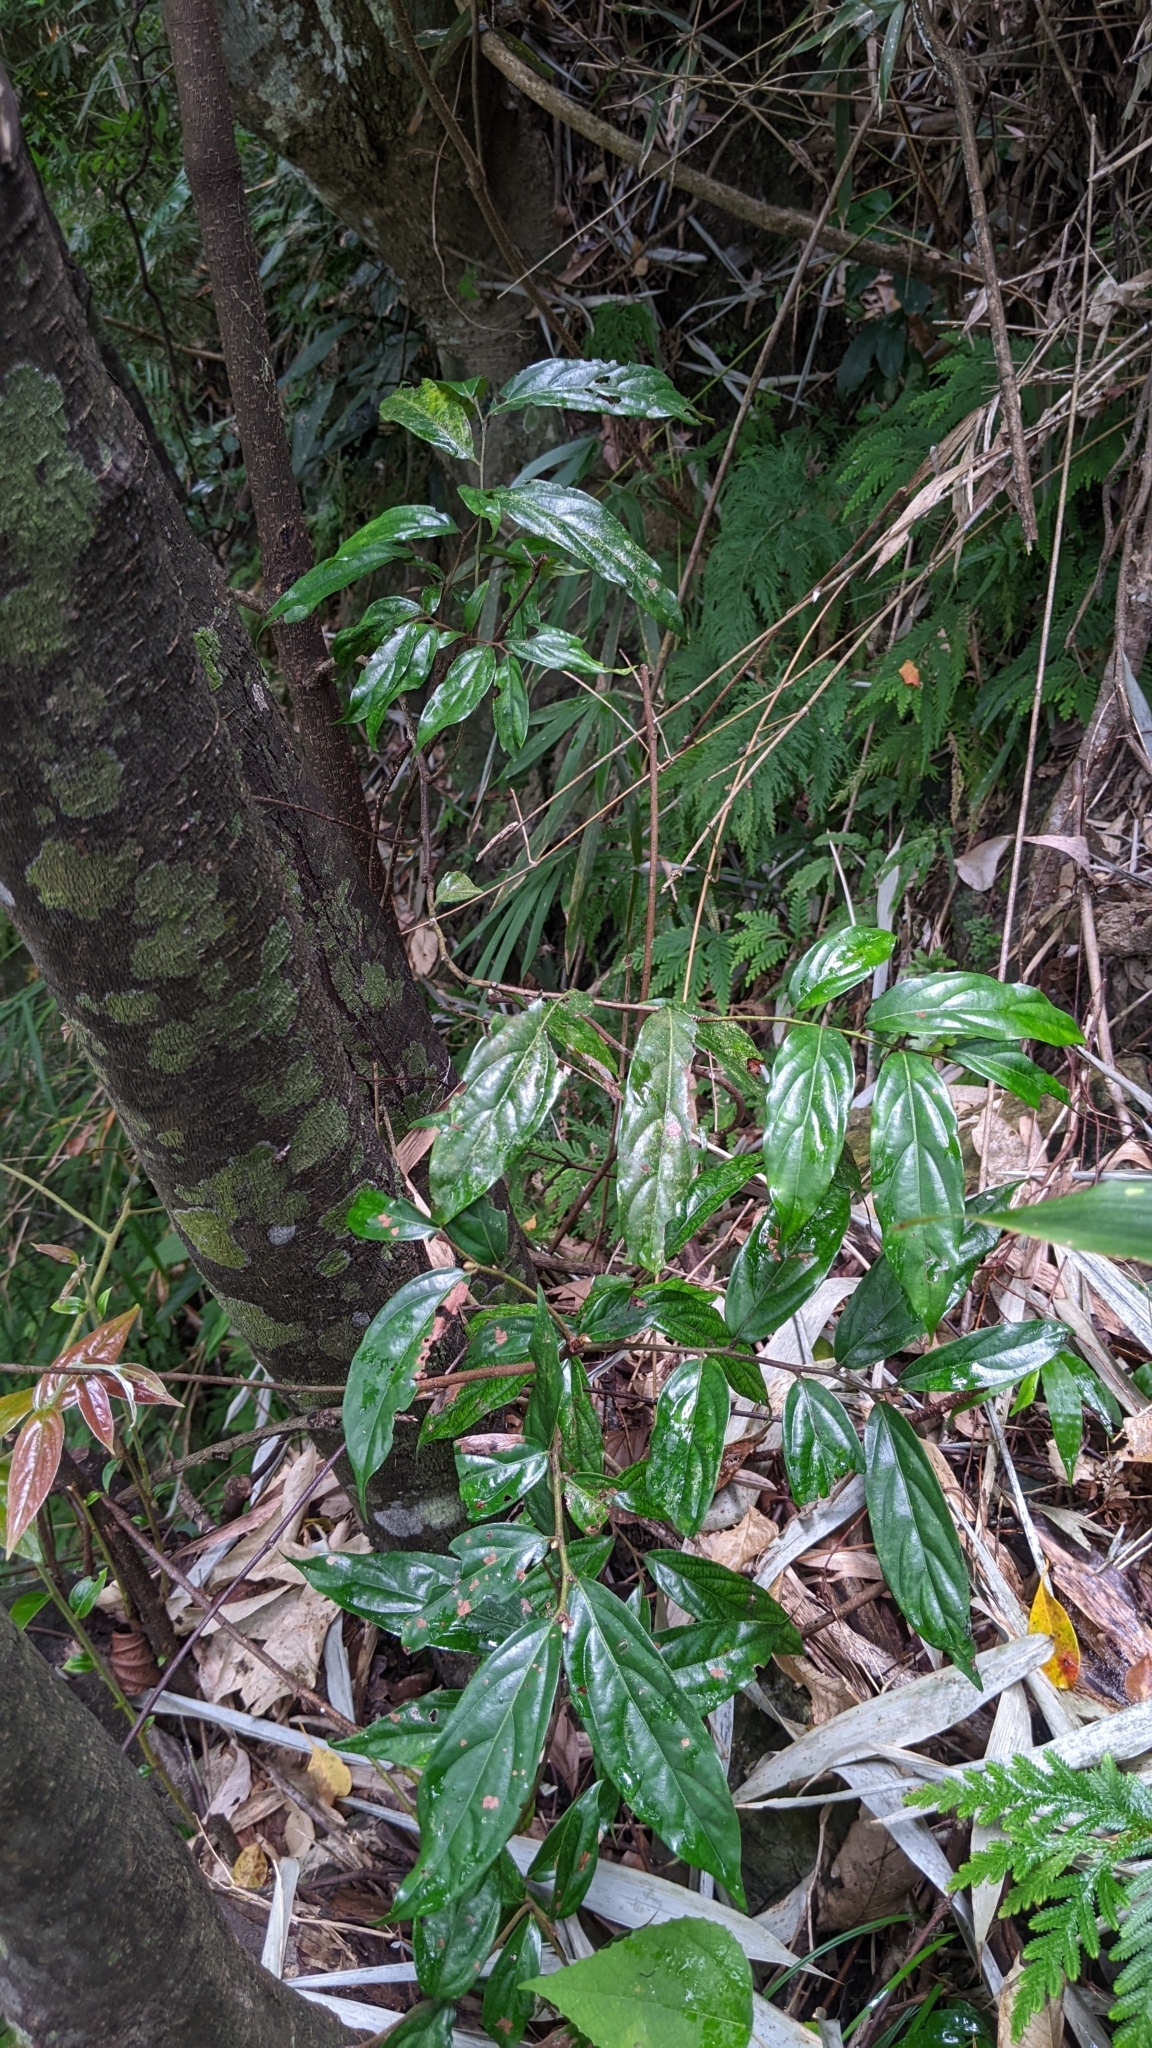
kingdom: Plantae
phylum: Tracheophyta
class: Magnoliopsida
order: Ericales
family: Ebenaceae
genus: Diospyros
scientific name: Diospyros eriantha
